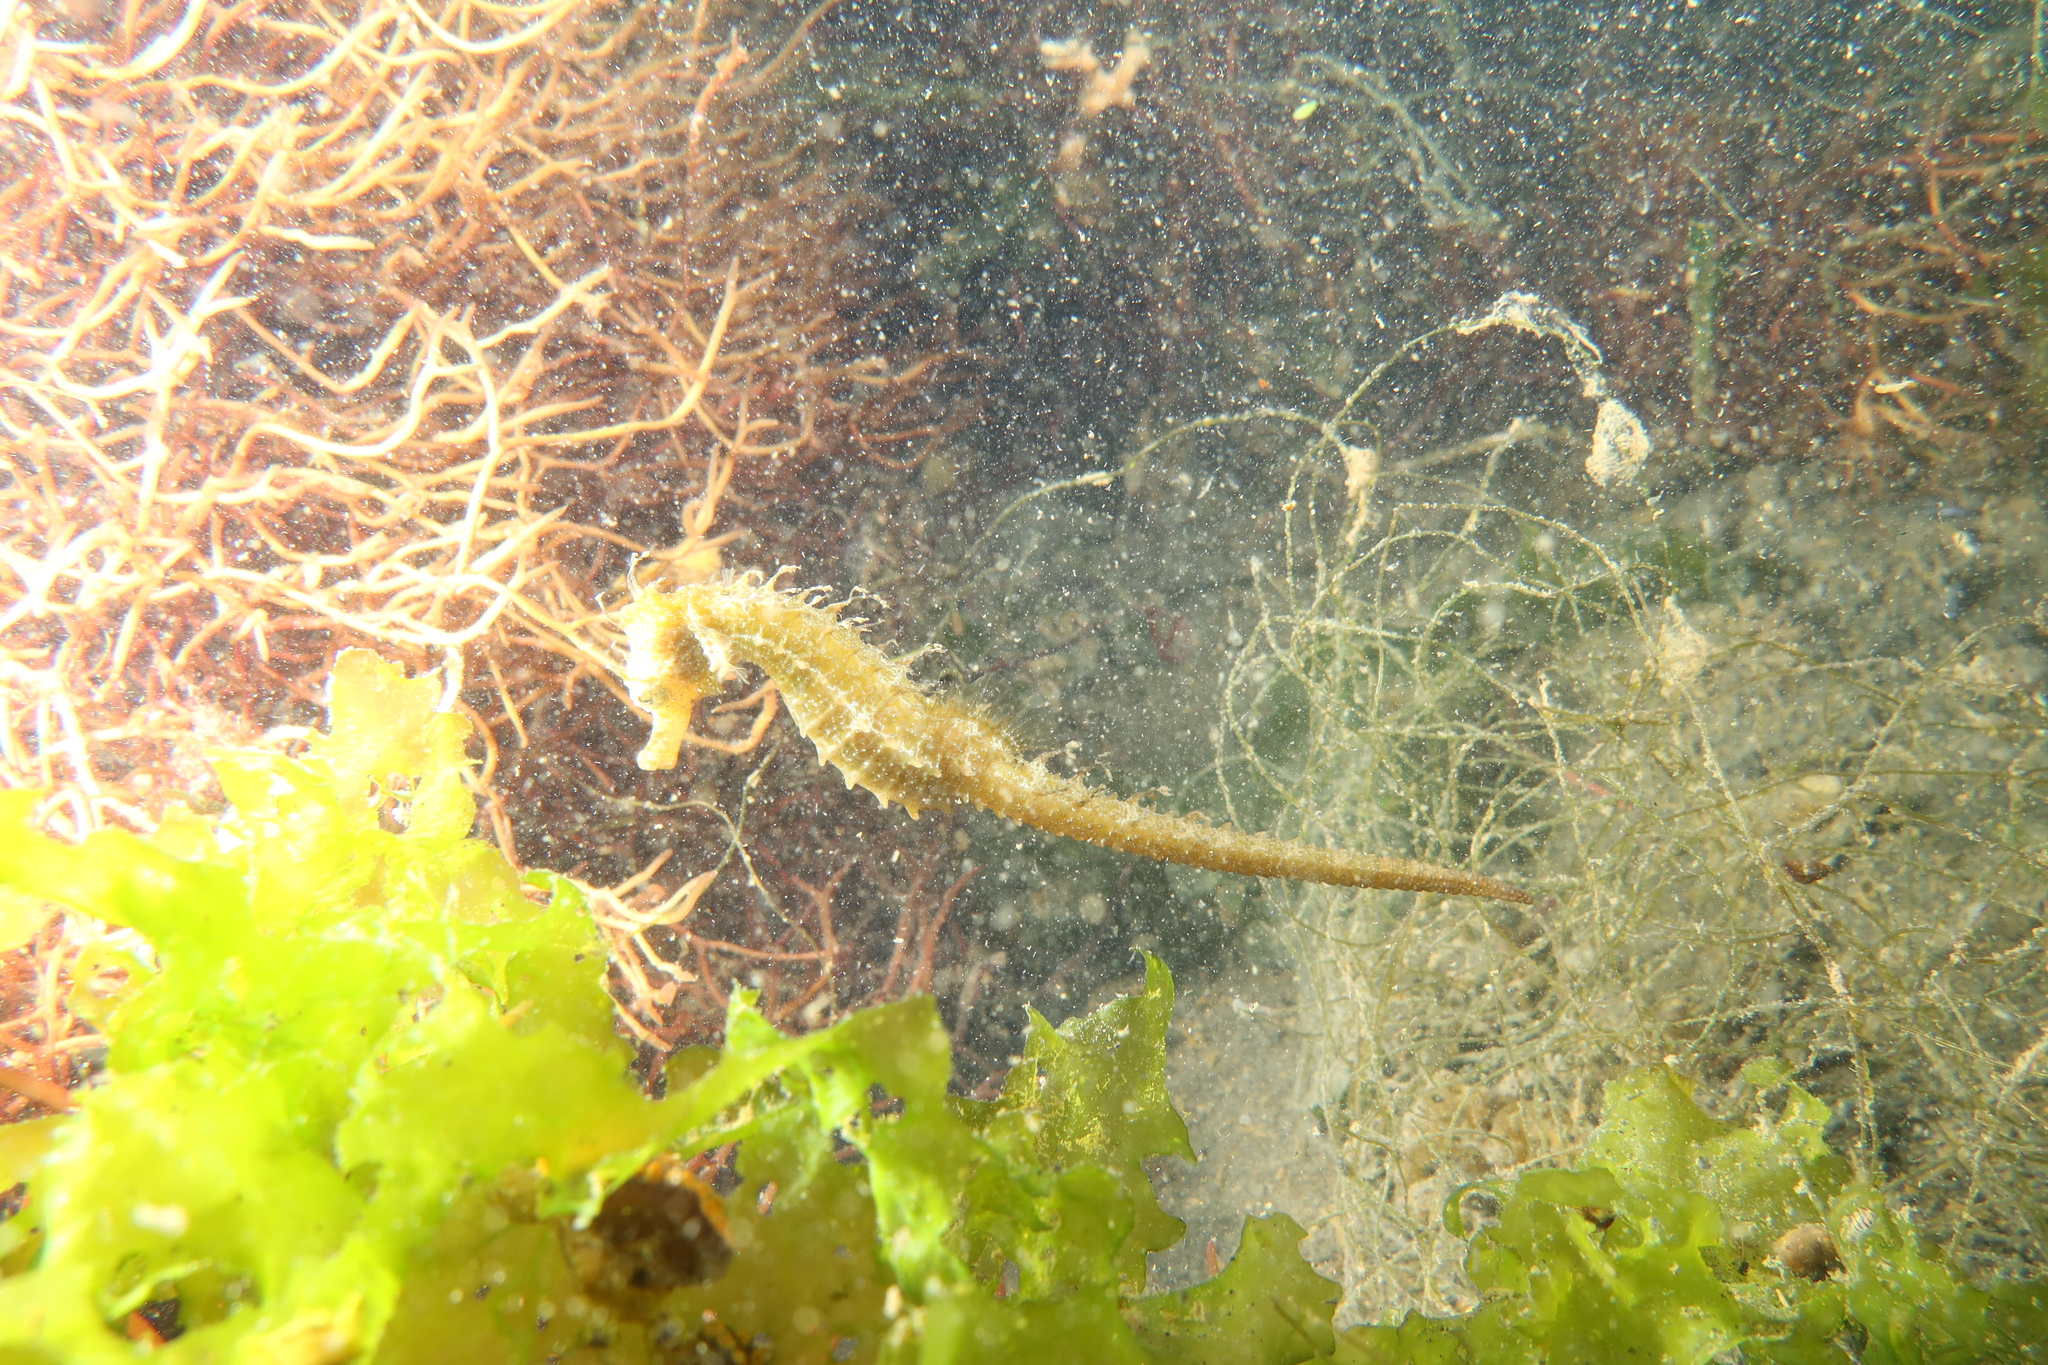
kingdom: Animalia
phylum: Chordata
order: Syngnathiformes
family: Syngnathidae
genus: Hippocampus
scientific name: Hippocampus guttulatus
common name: Long-snouted seahorse
